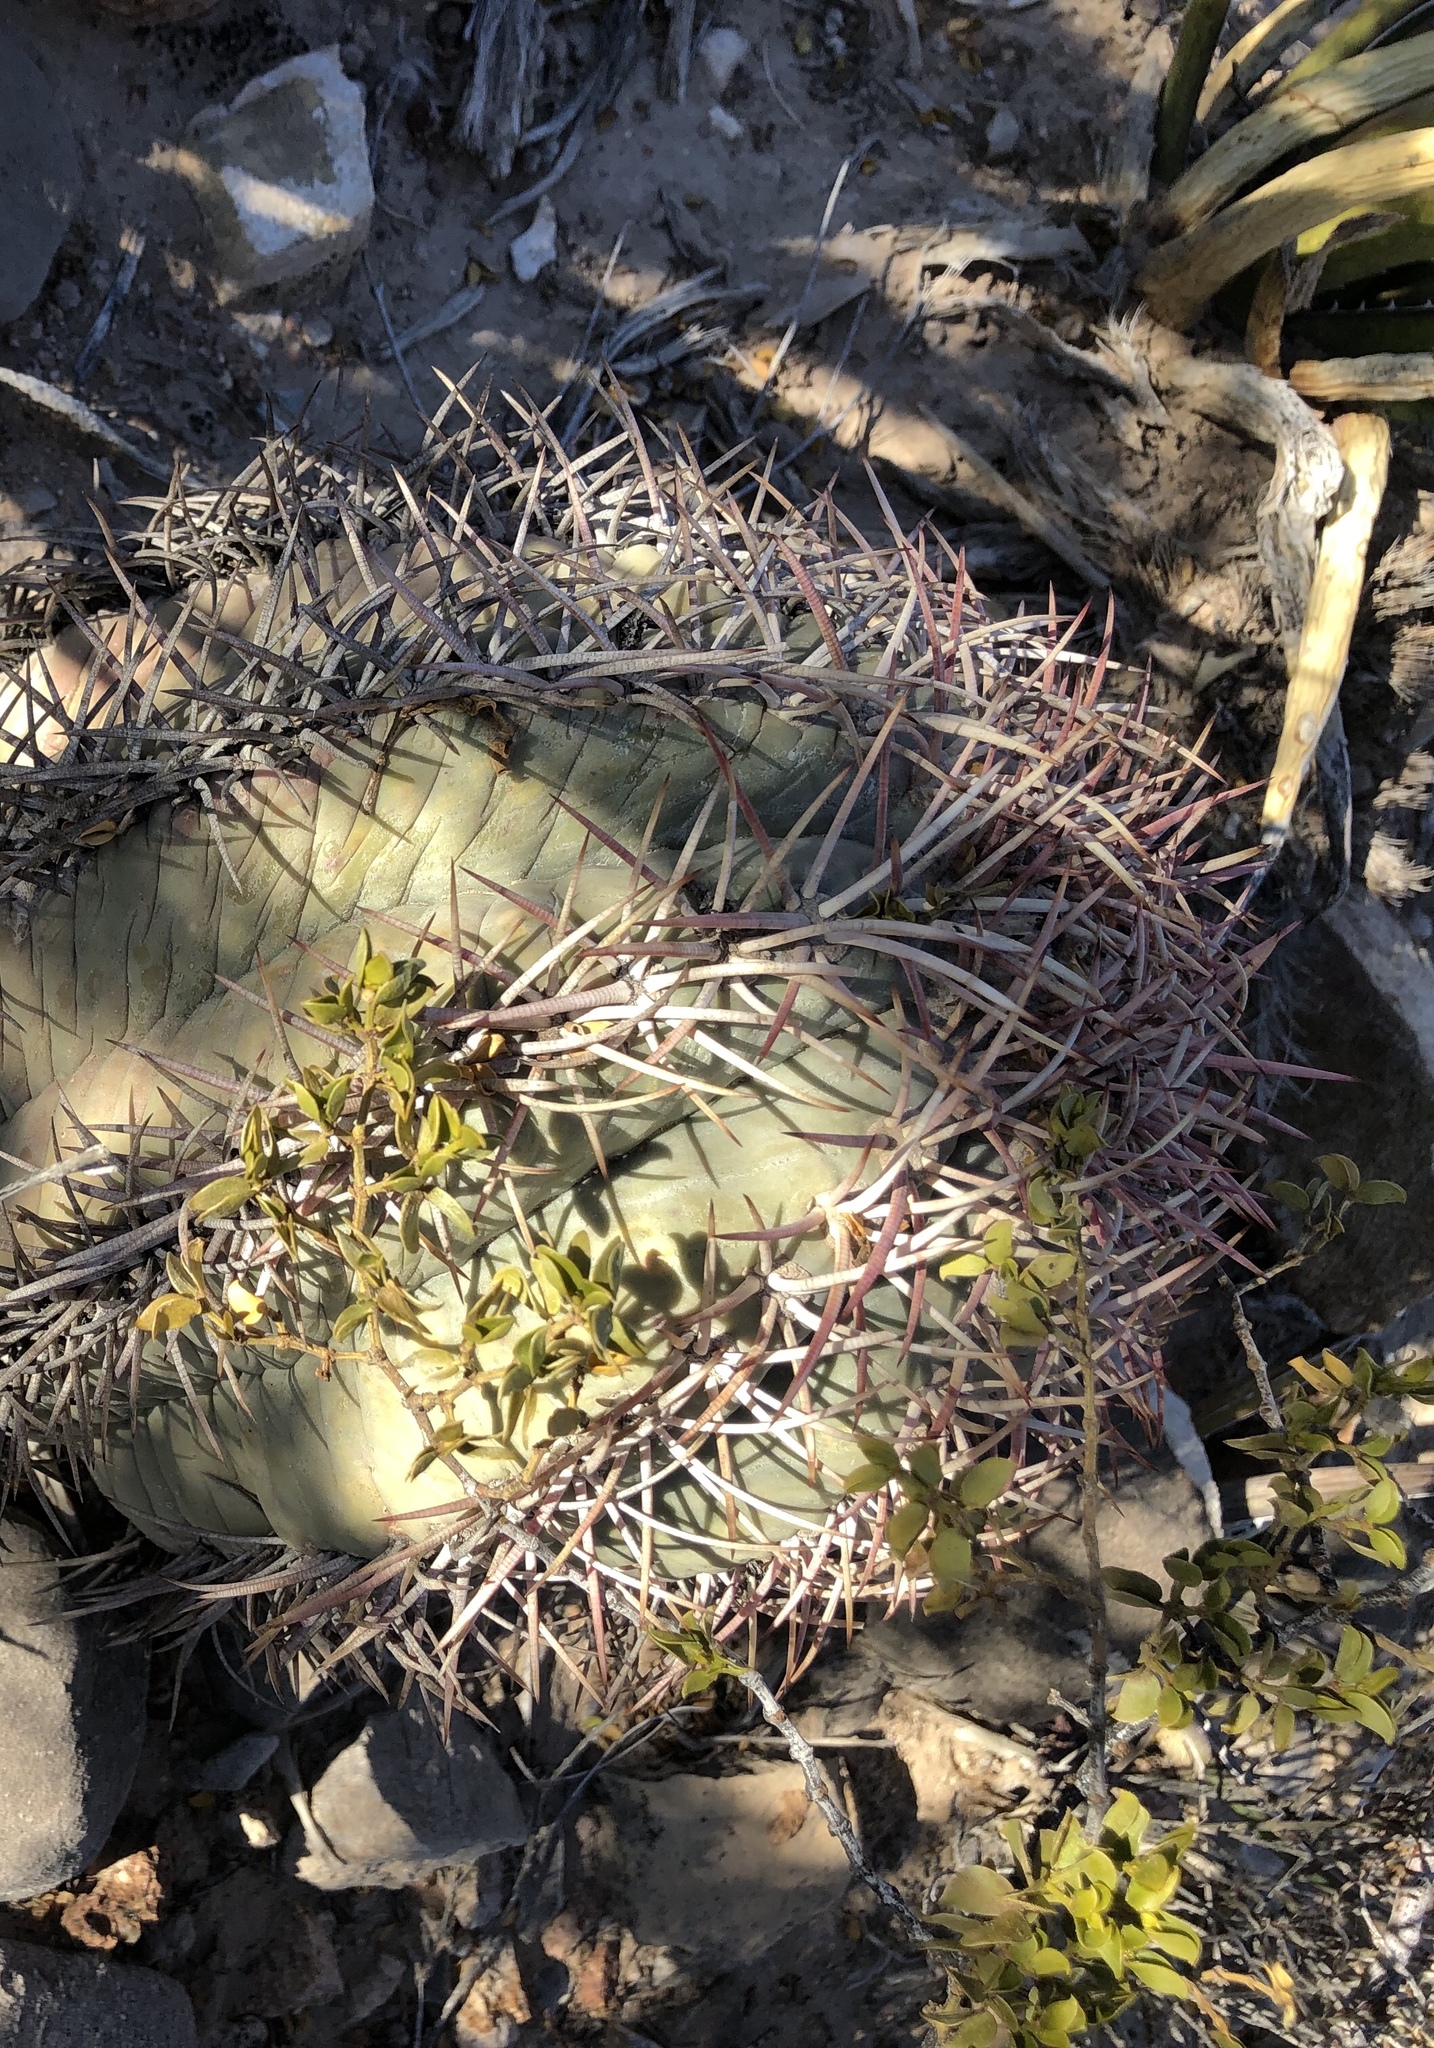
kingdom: Plantae
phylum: Tracheophyta
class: Magnoliopsida
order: Caryophyllales
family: Cactaceae
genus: Echinocactus
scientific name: Echinocactus horizonthalonius
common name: Devilshead
